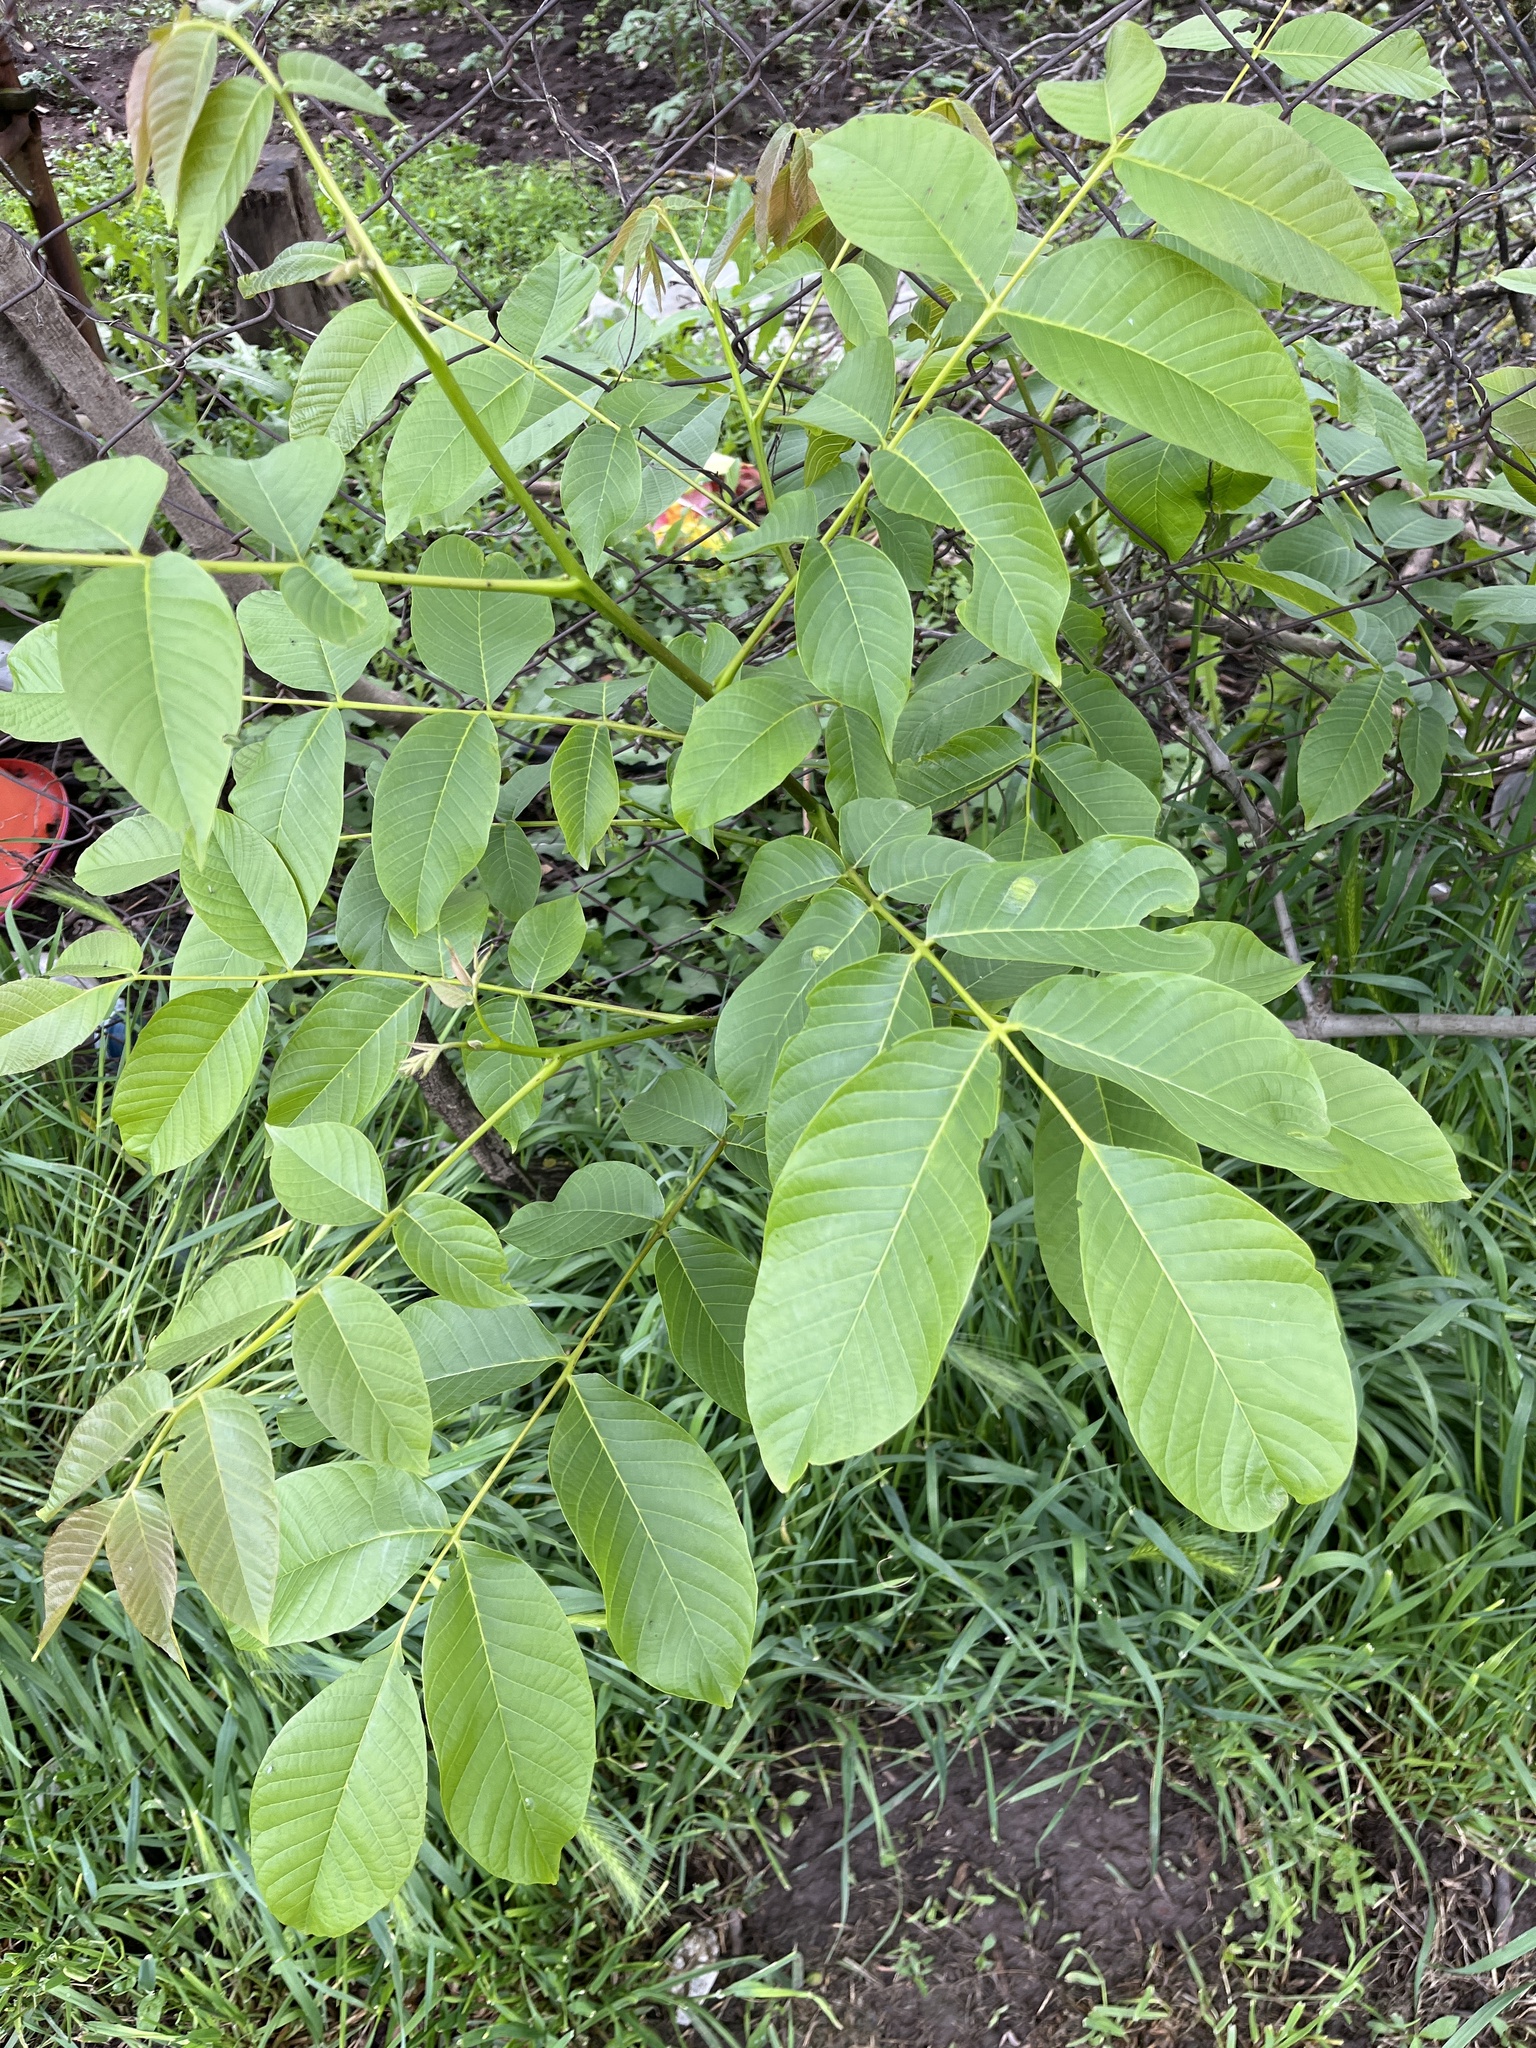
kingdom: Plantae
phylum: Tracheophyta
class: Magnoliopsida
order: Fagales
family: Juglandaceae
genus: Juglans
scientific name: Juglans regia
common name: Walnut
